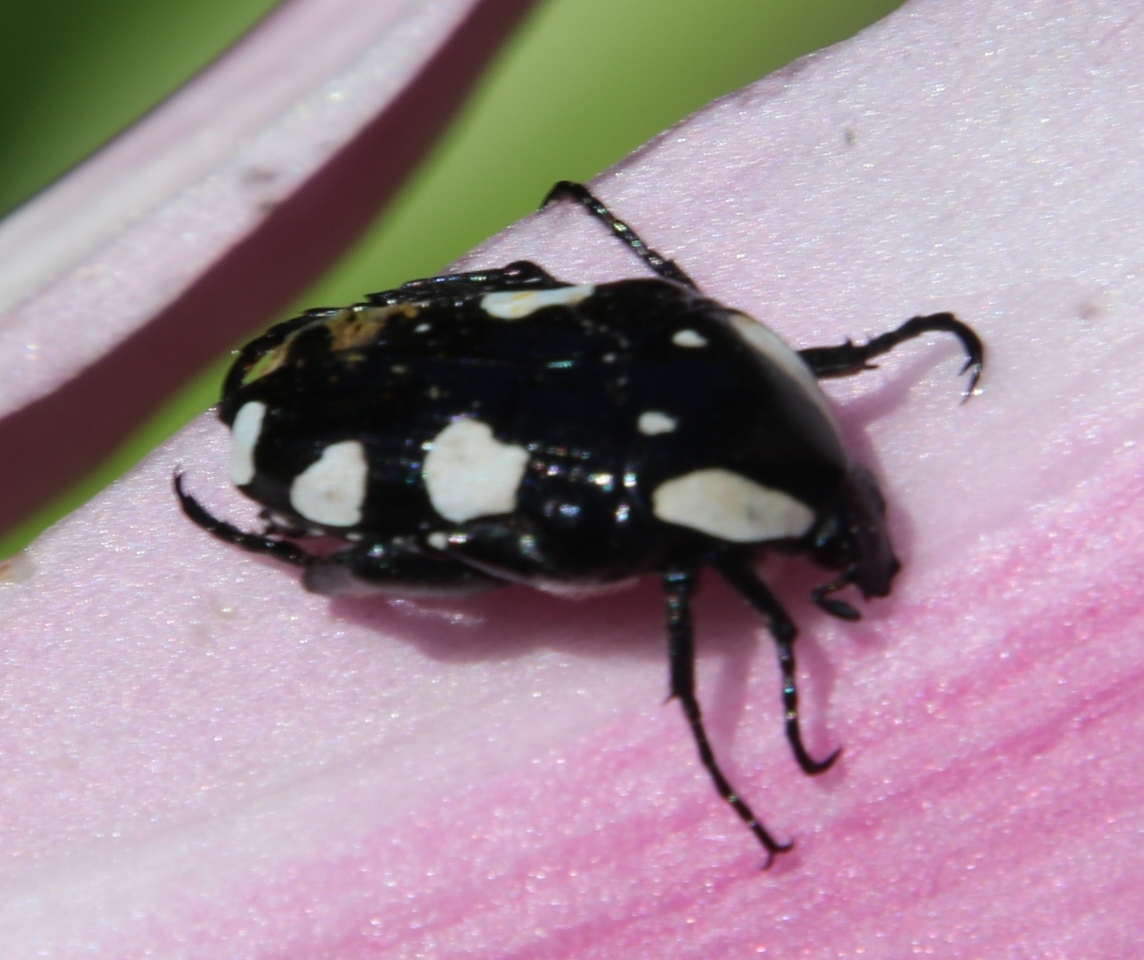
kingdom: Animalia
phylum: Arthropoda
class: Insecta
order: Coleoptera
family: Scarabaeidae
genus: Mausoleopsis
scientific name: Mausoleopsis amabilis
